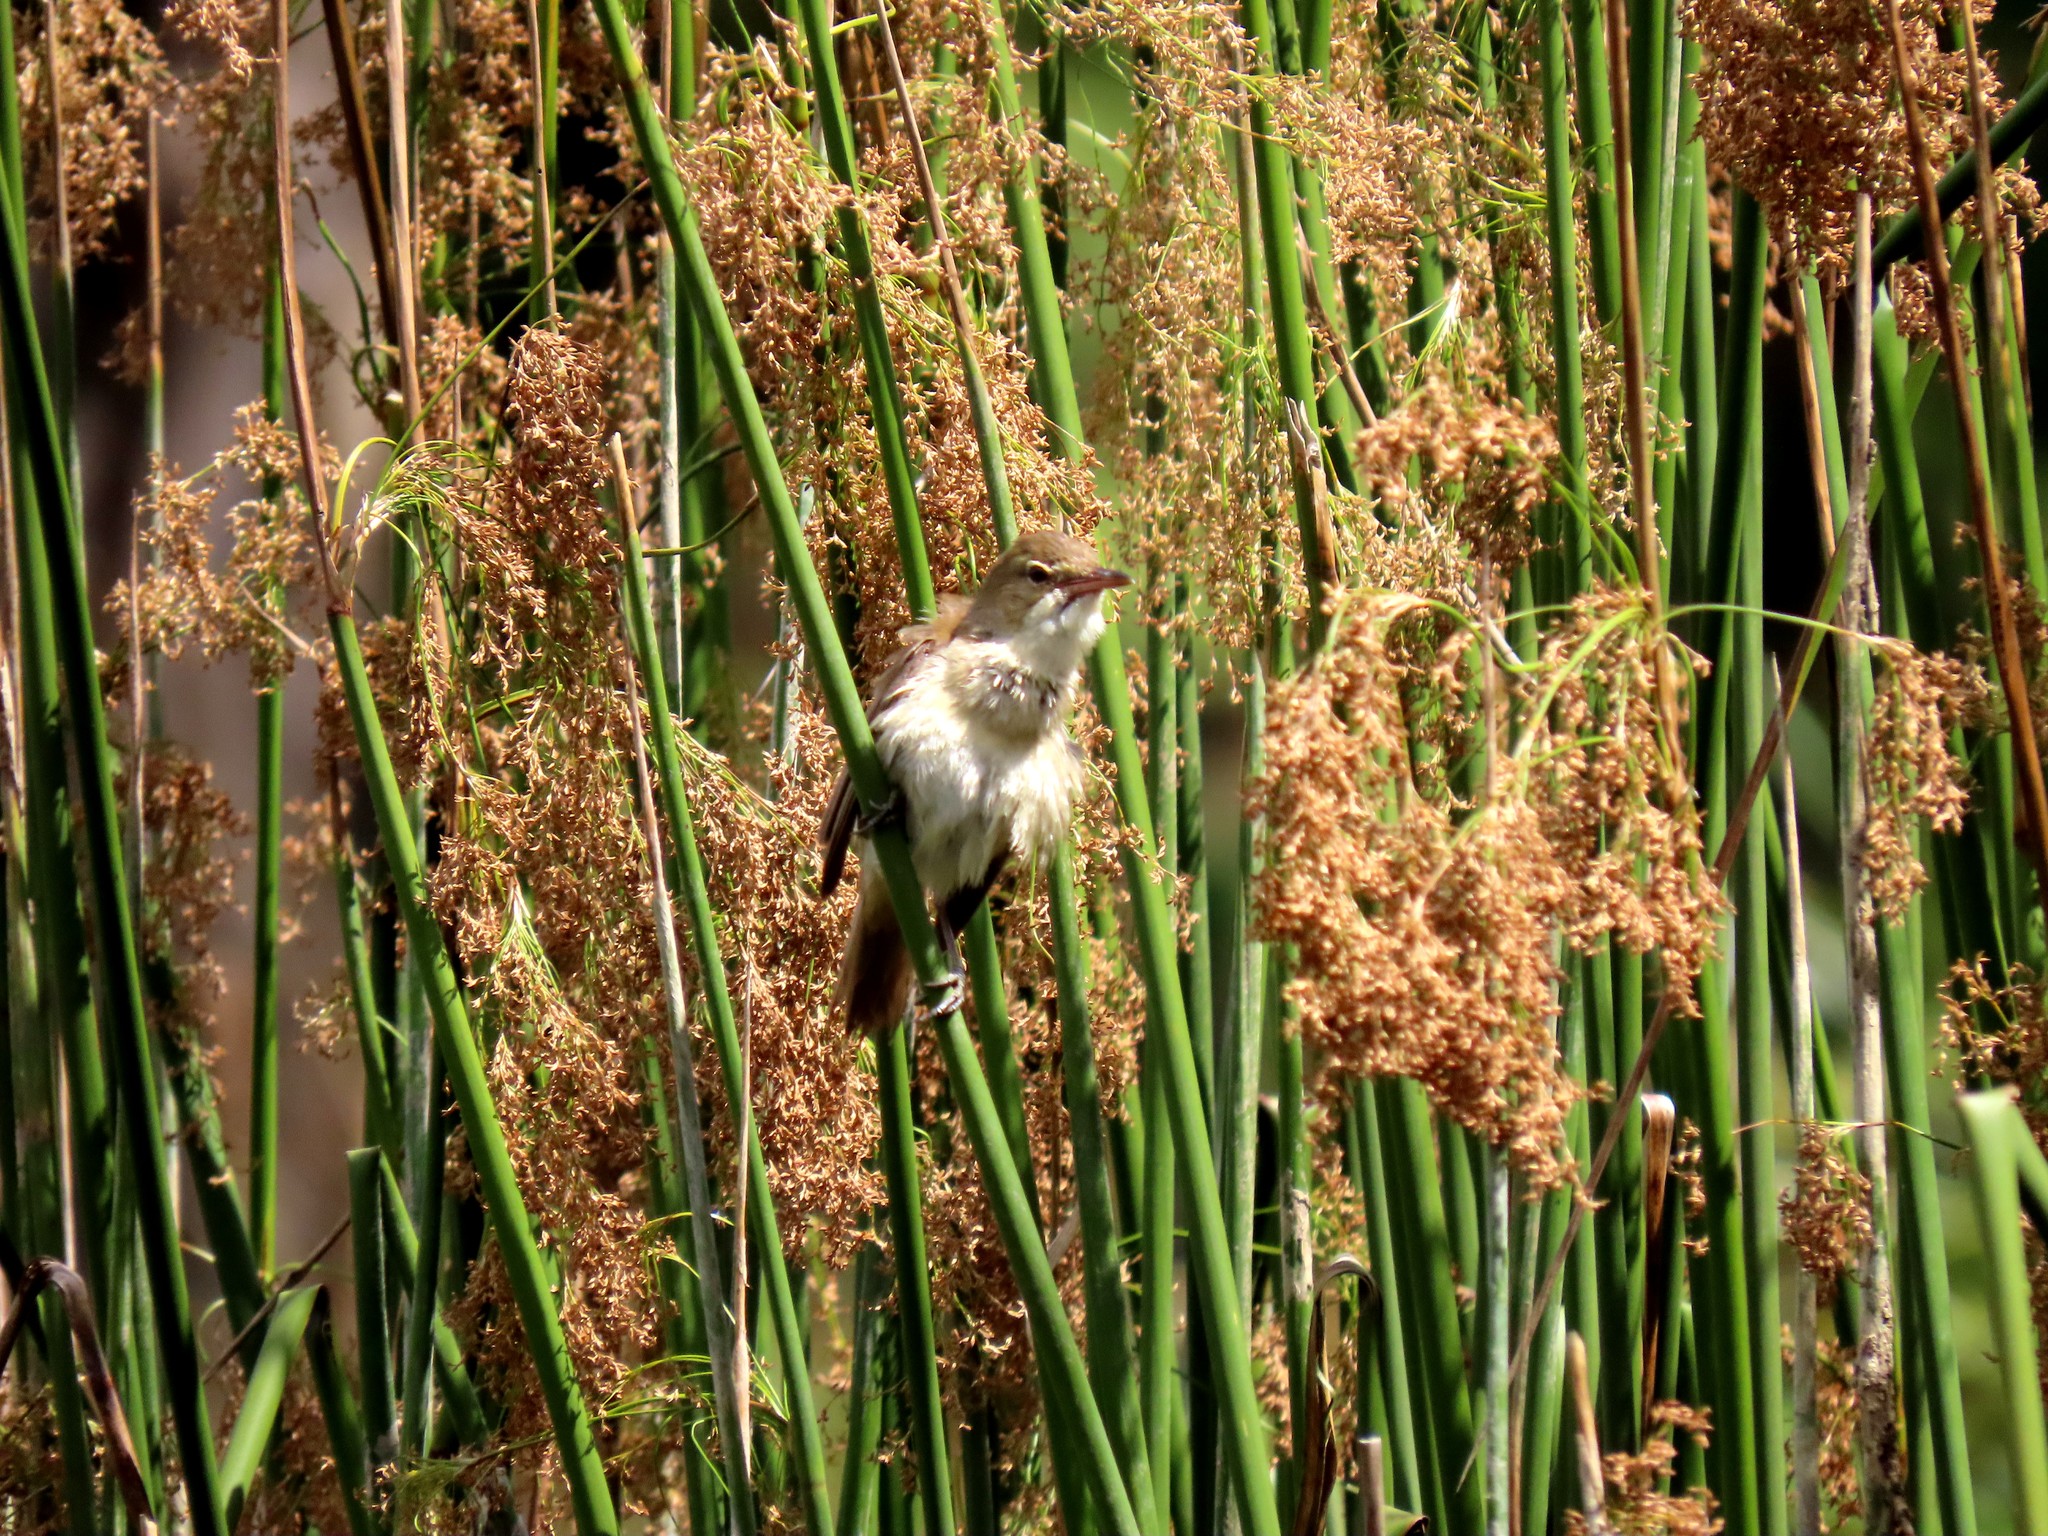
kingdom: Animalia
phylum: Chordata
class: Aves
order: Passeriformes
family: Acrocephalidae
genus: Acrocephalus
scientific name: Acrocephalus australis
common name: Australian reed warbler
